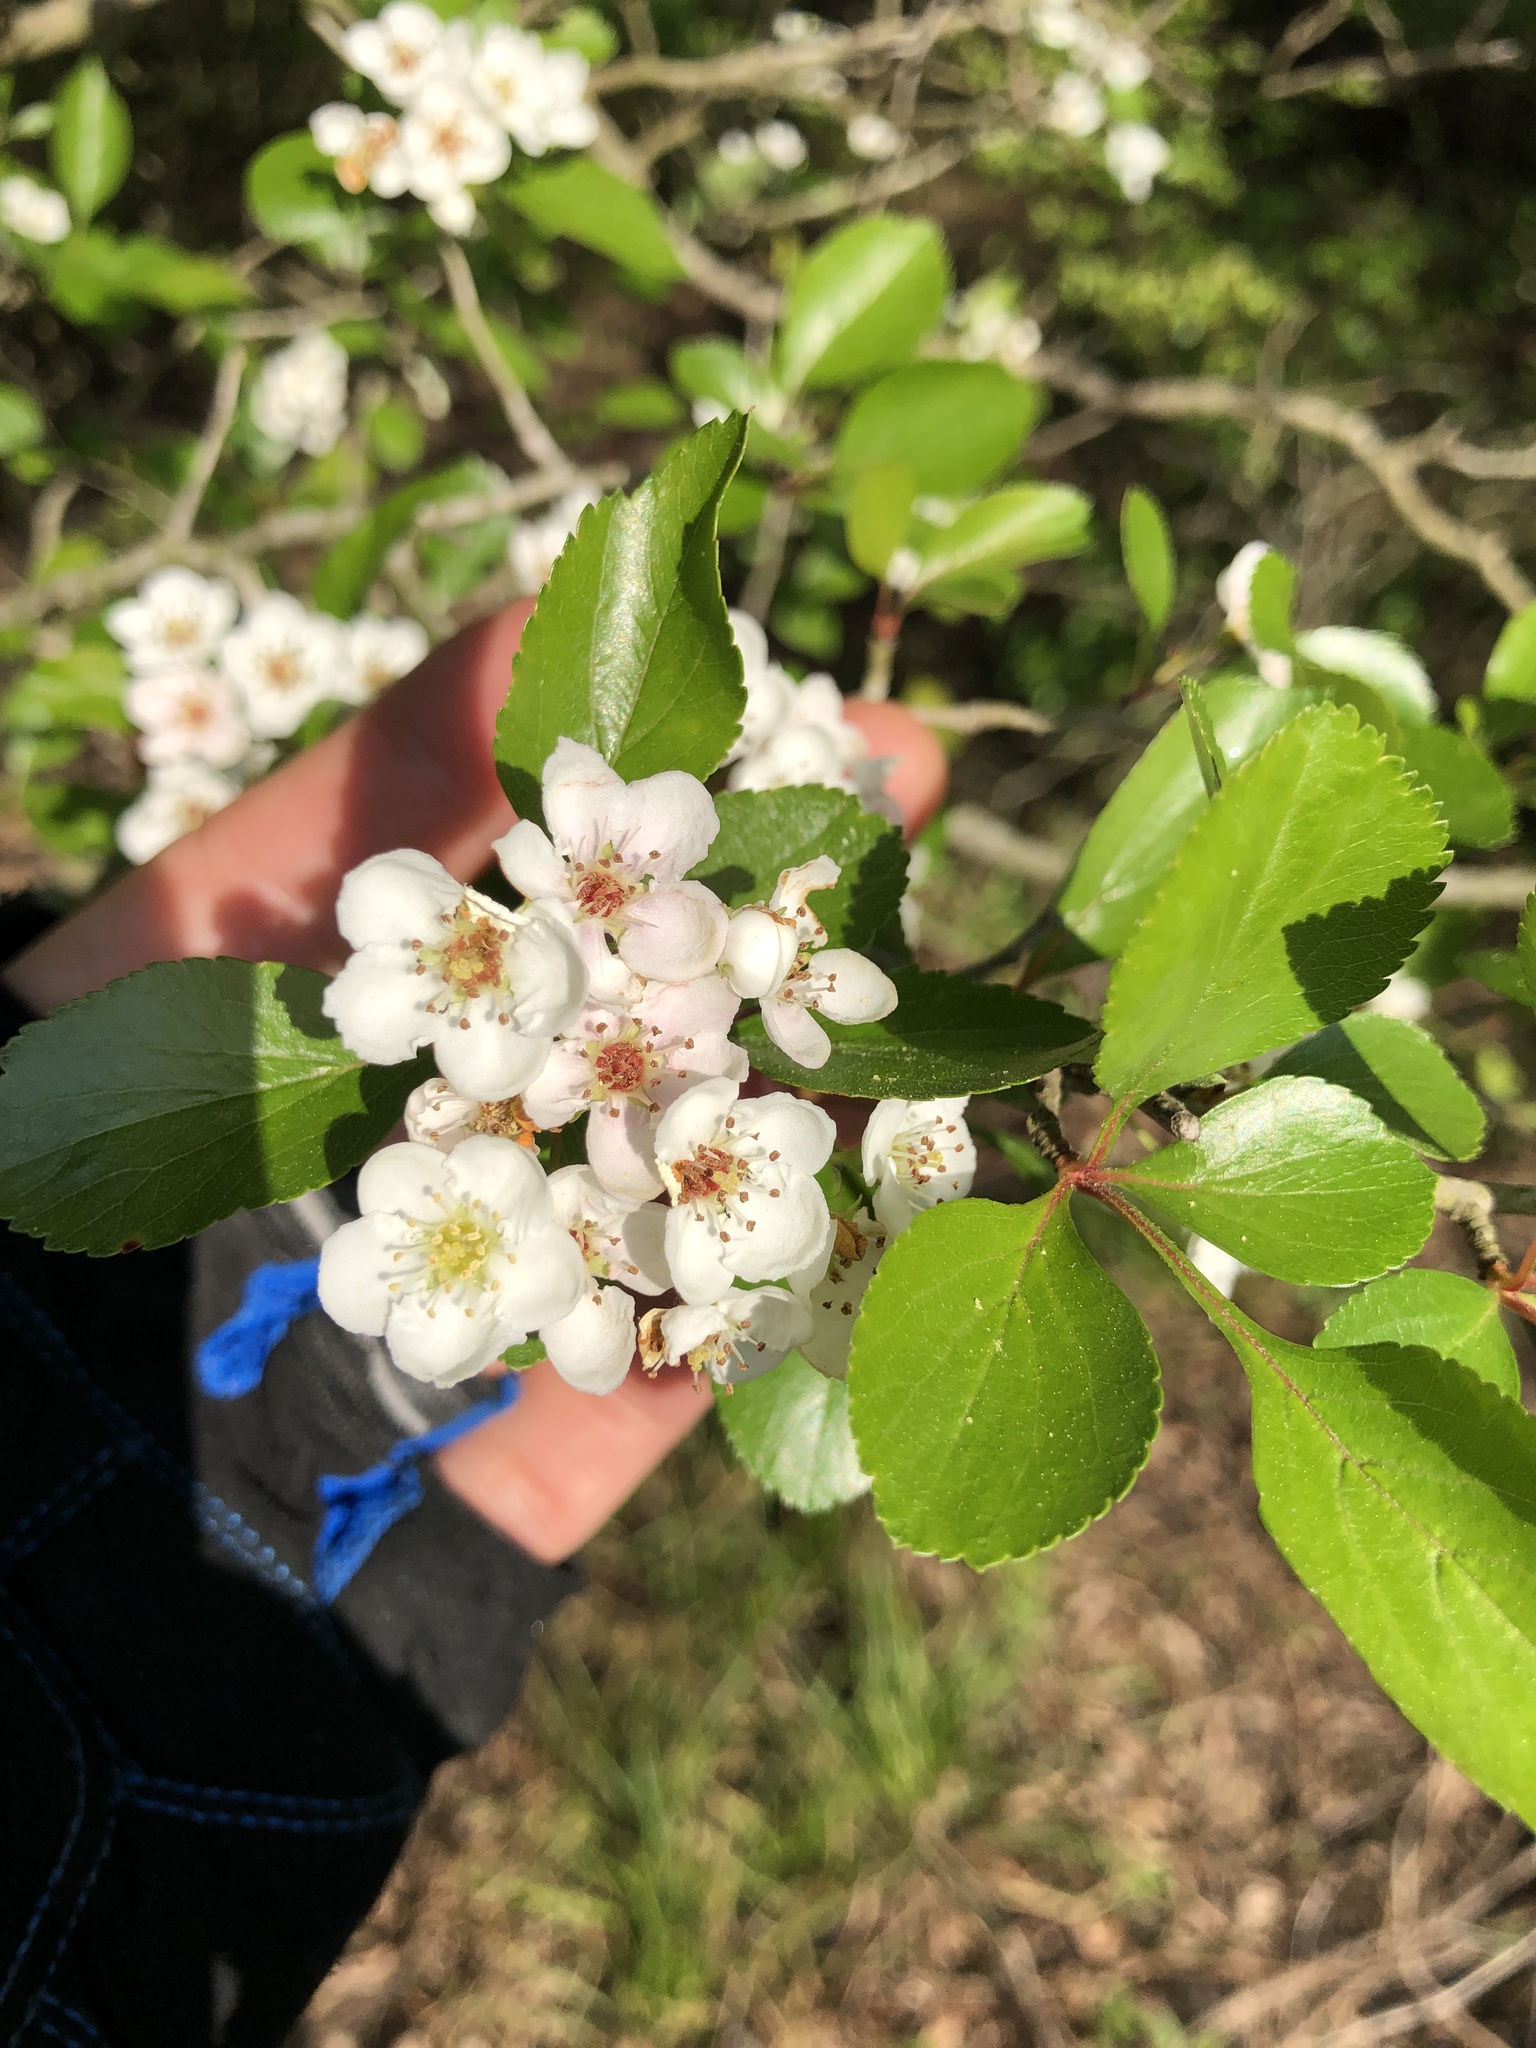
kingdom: Plantae
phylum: Tracheophyta
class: Magnoliopsida
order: Rosales
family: Rosaceae
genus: Crataegus
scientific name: Crataegus viridis
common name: Southernthorn
